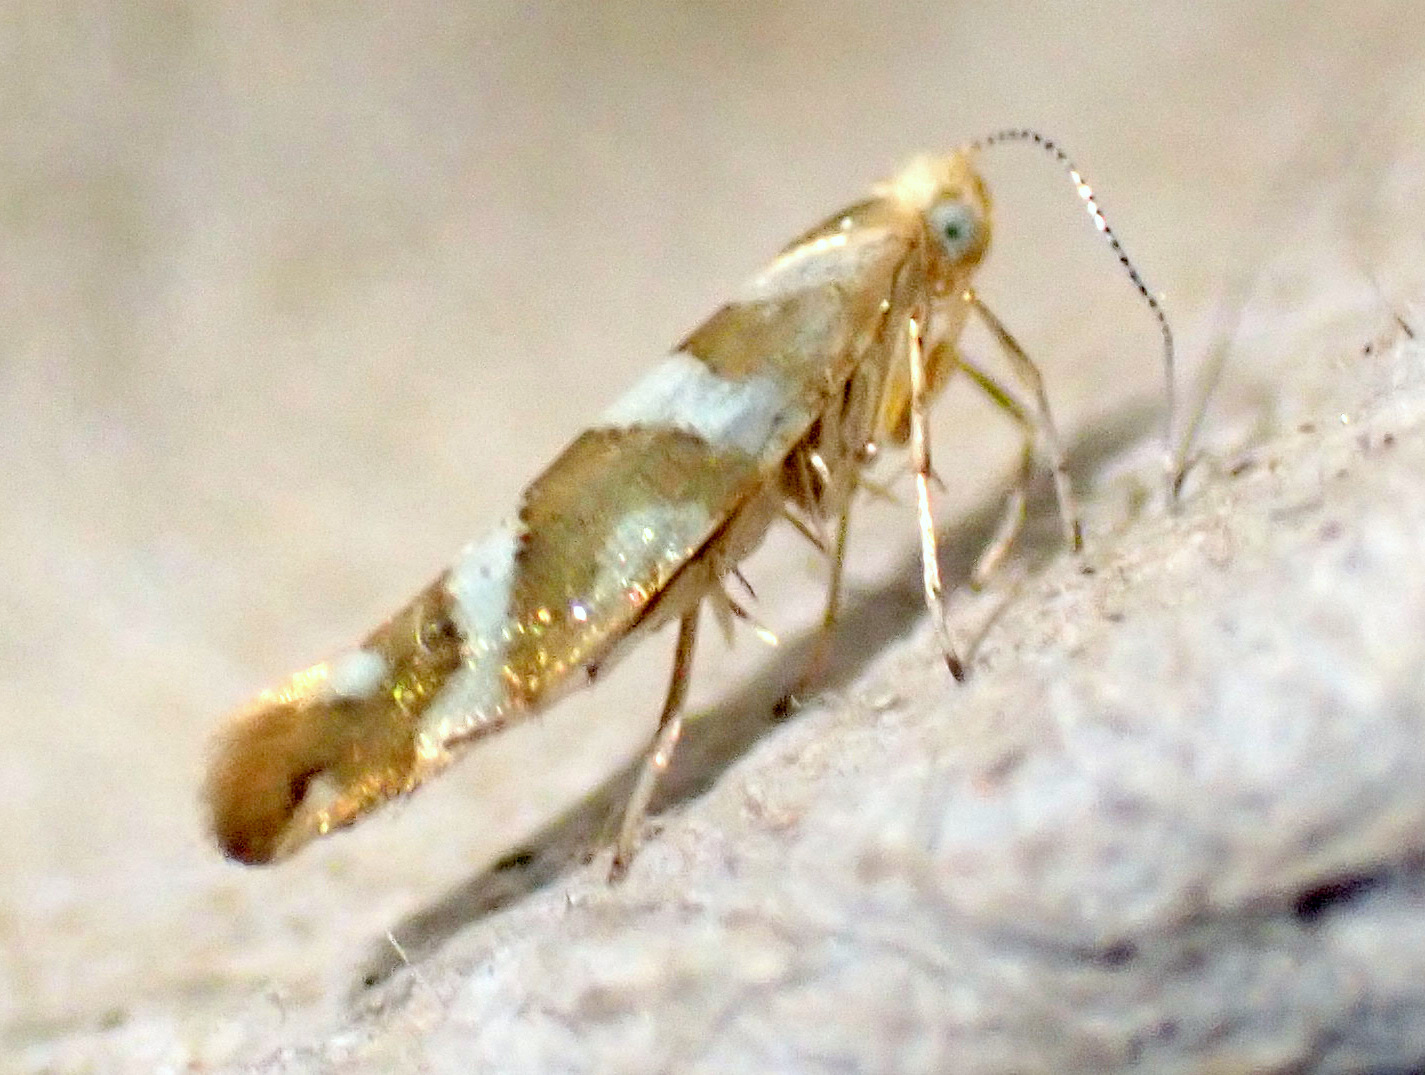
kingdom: Animalia
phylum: Arthropoda
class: Insecta
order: Lepidoptera
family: Argyresthiidae
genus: Argyresthia
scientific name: Argyresthia goedartella
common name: Golden argent
